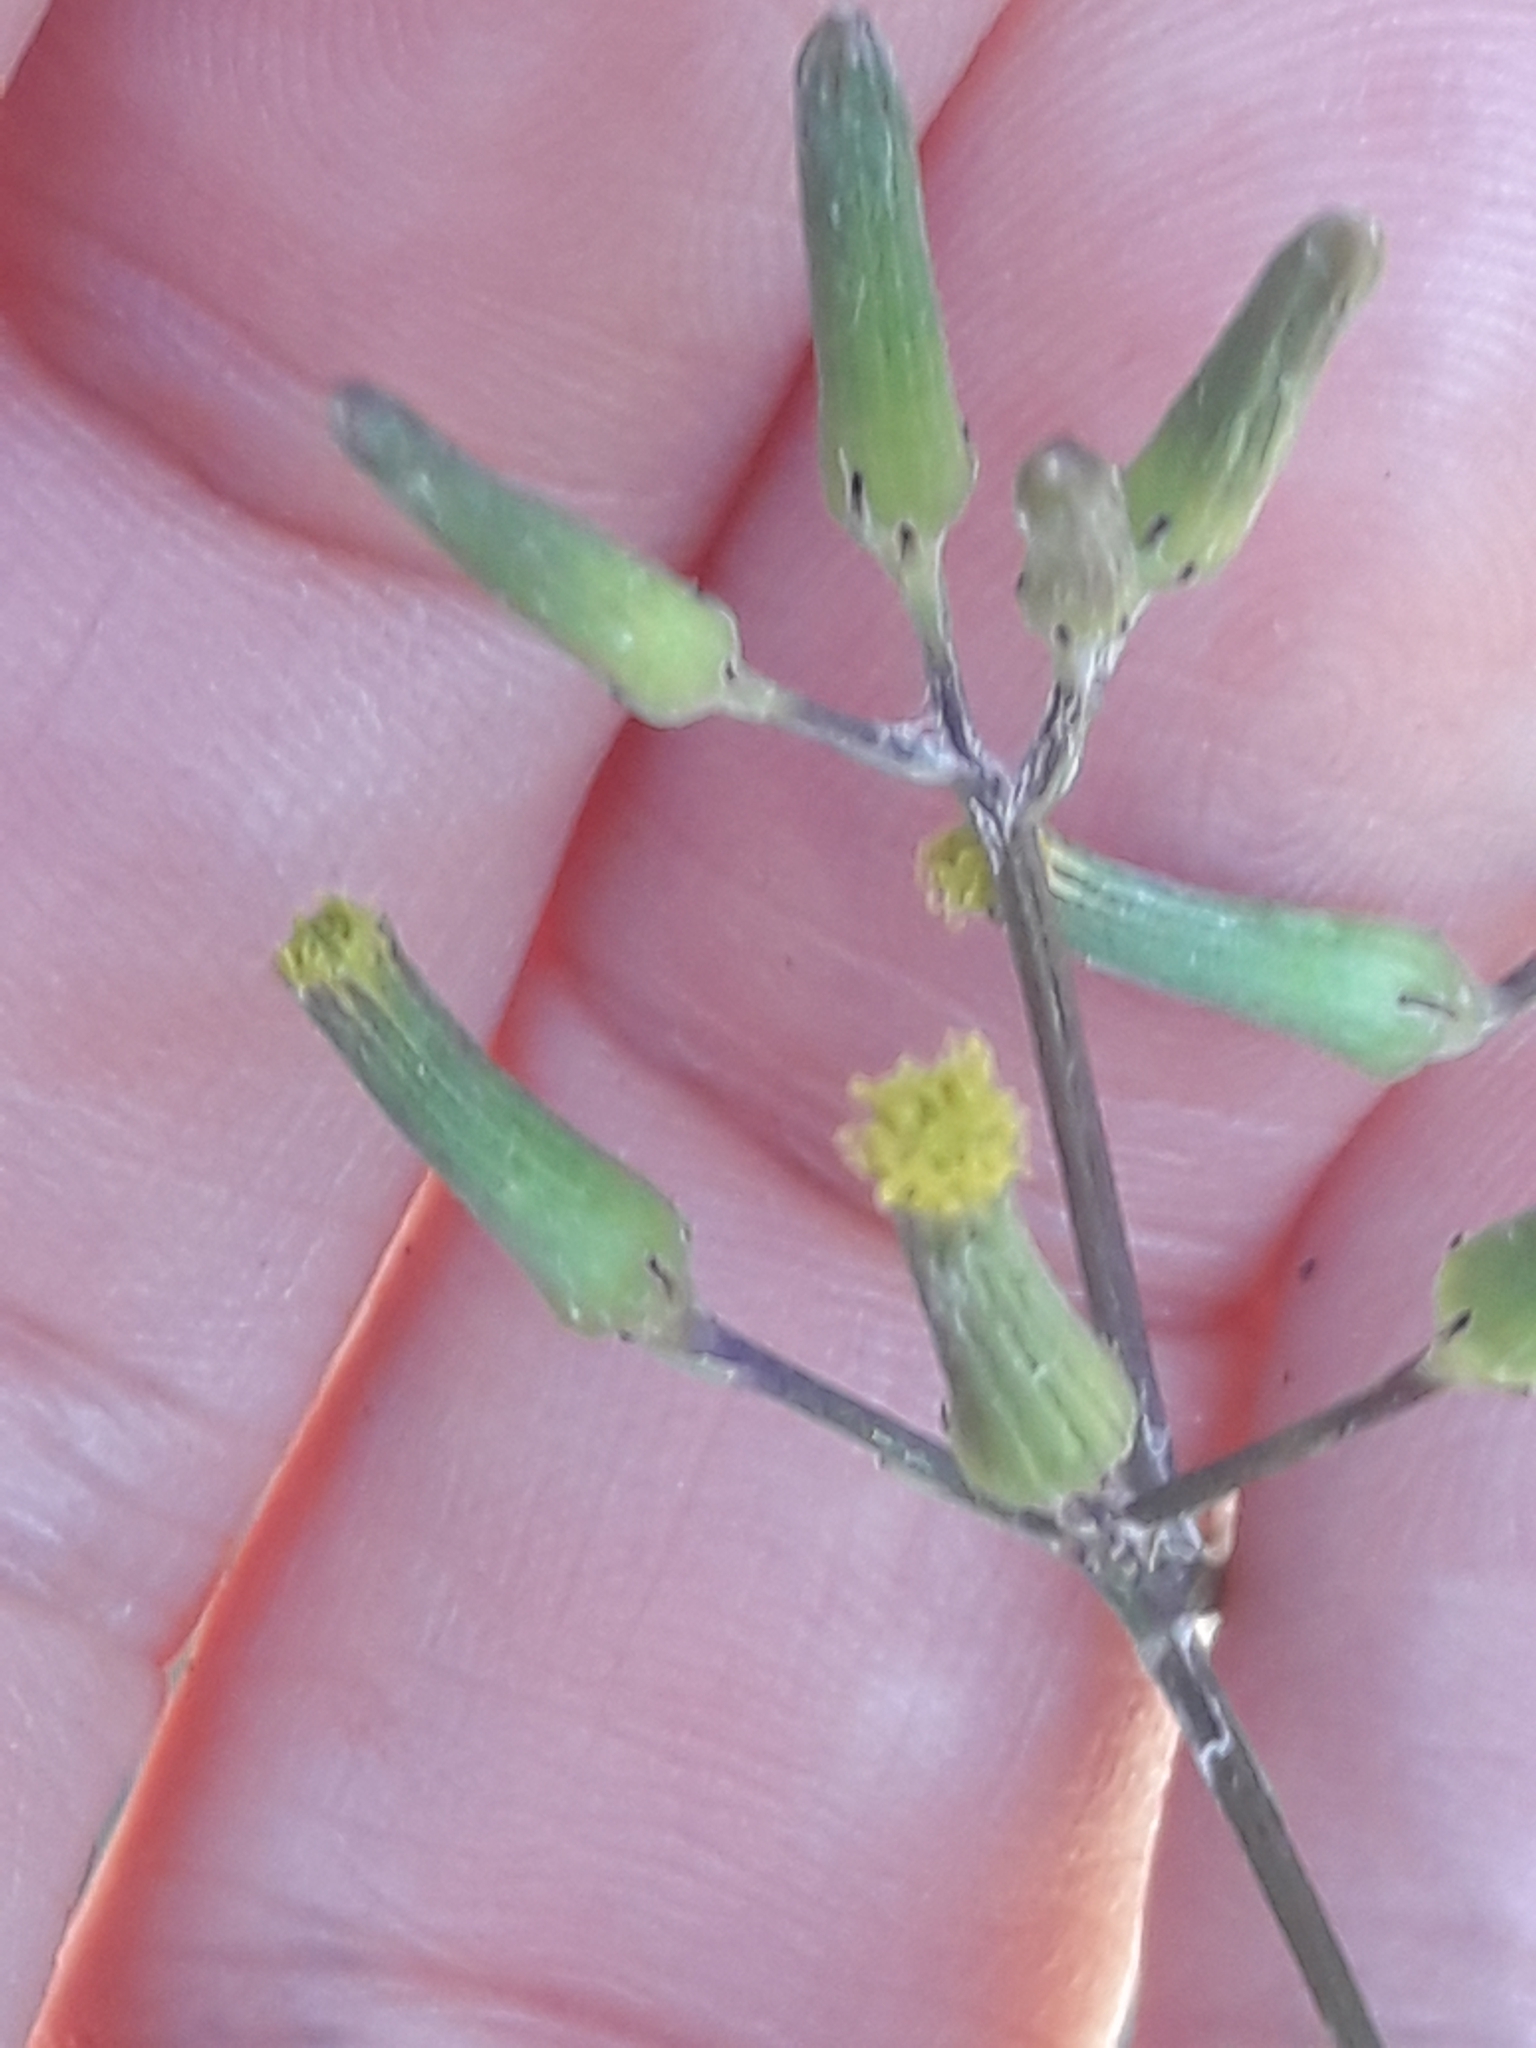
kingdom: Plantae
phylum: Tracheophyta
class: Magnoliopsida
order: Asterales
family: Asteraceae
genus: Senecio
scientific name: Senecio quadridentatus
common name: Cotton fireweed
